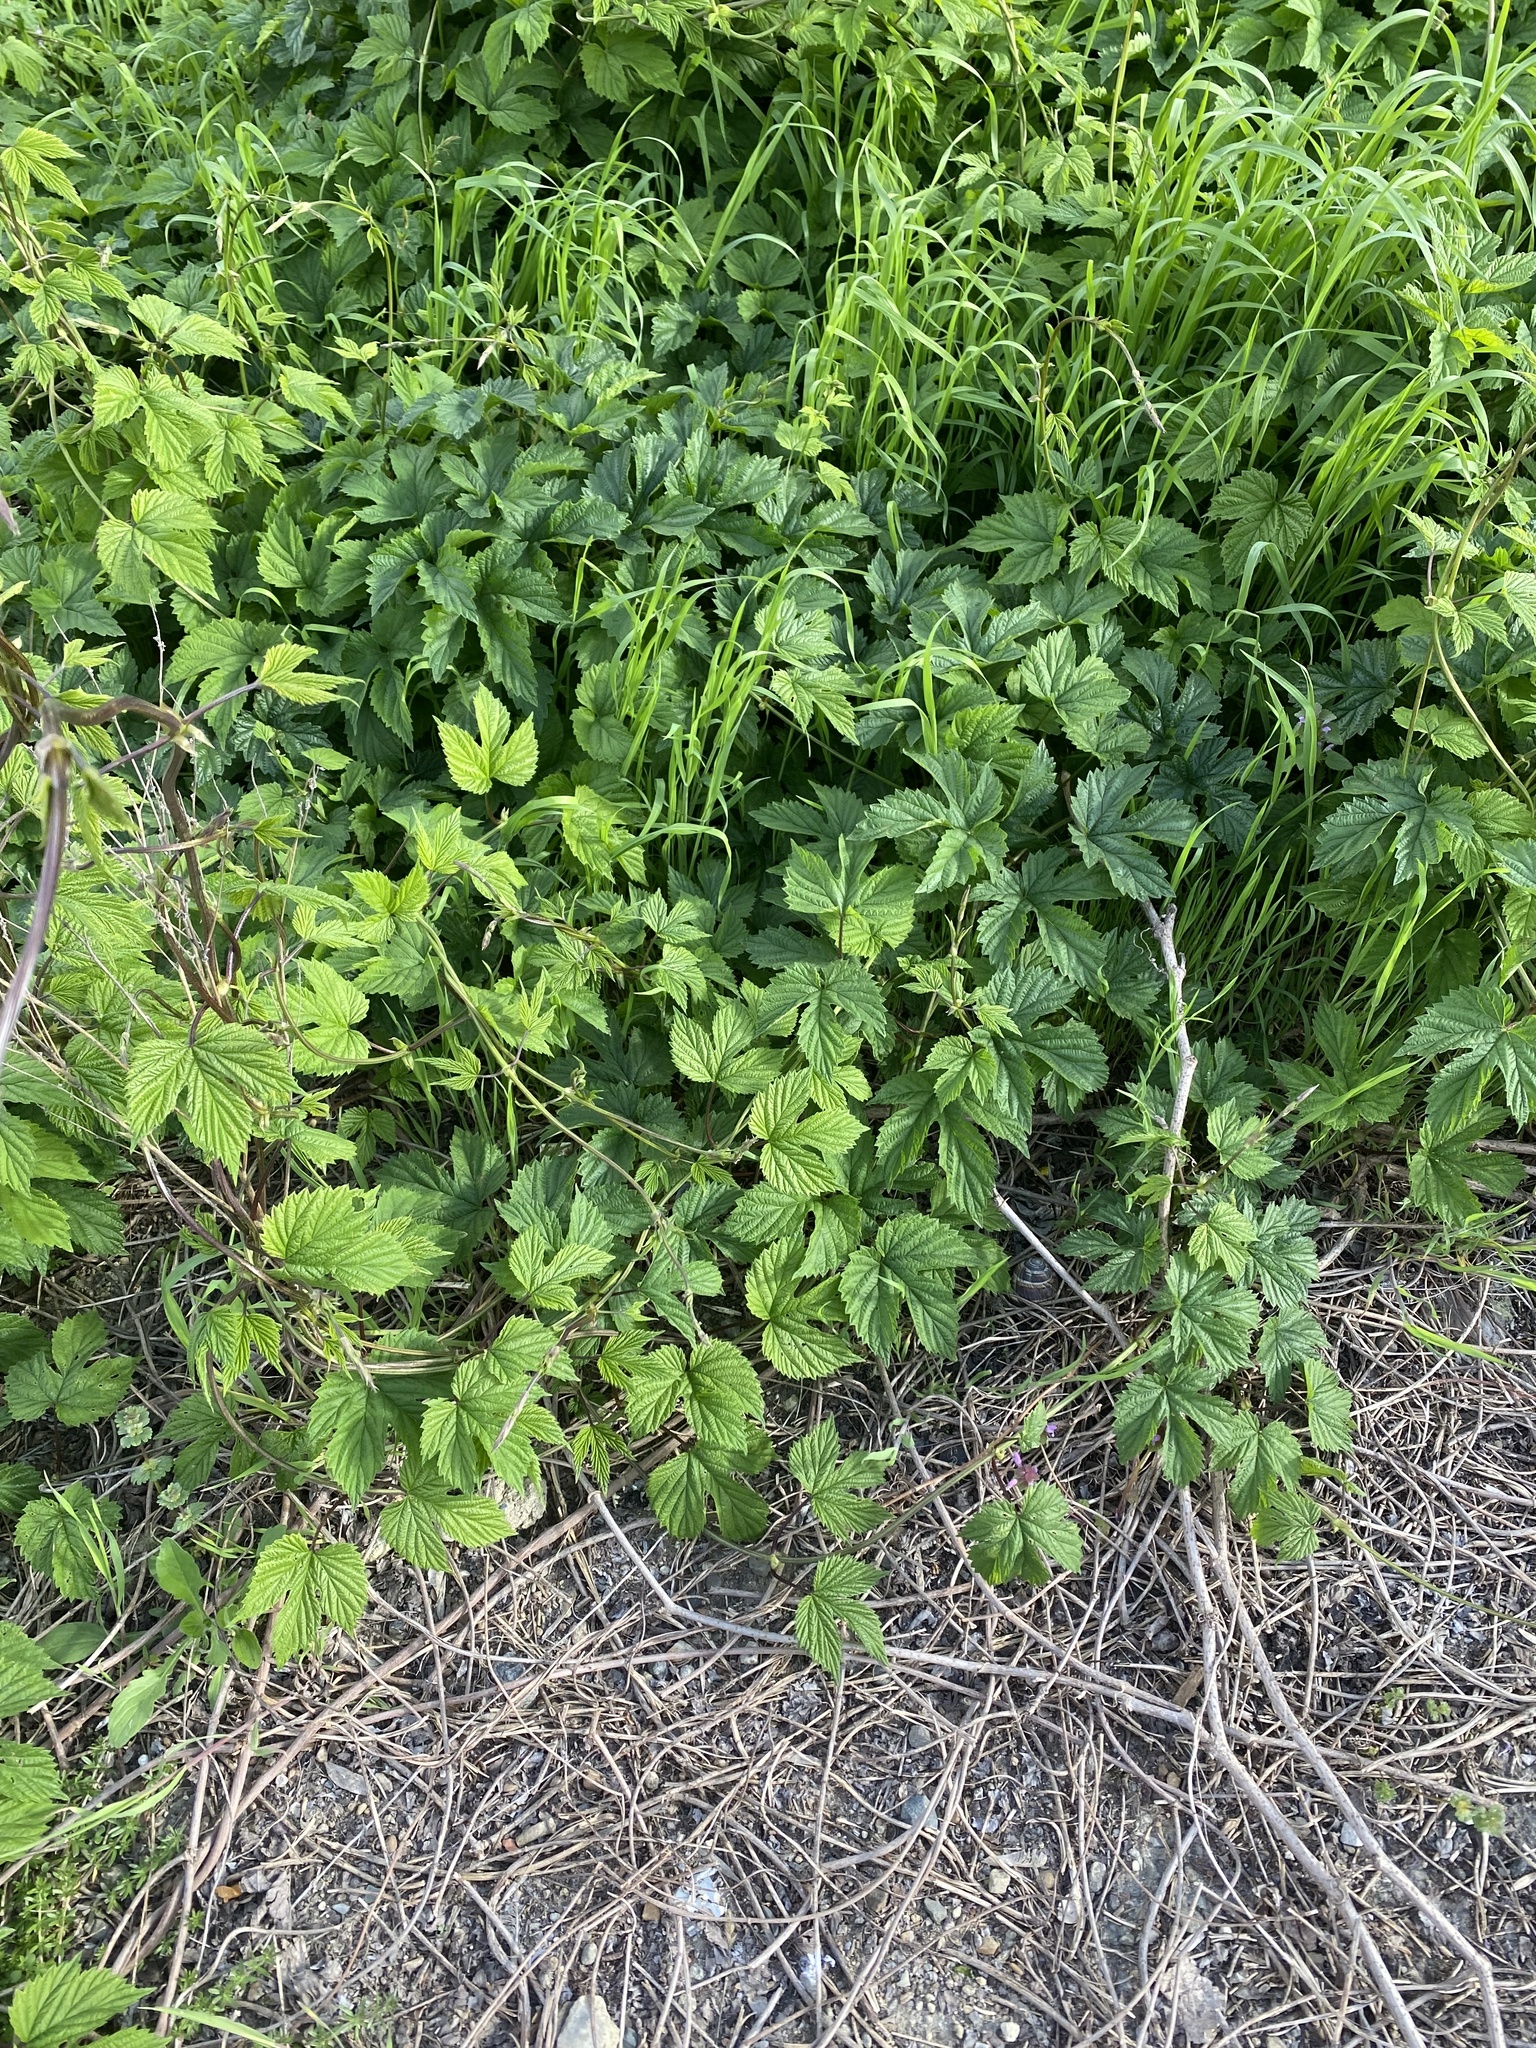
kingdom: Plantae
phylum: Tracheophyta
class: Magnoliopsida
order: Rosales
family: Cannabaceae
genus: Humulus
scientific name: Humulus lupulus
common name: Hop
